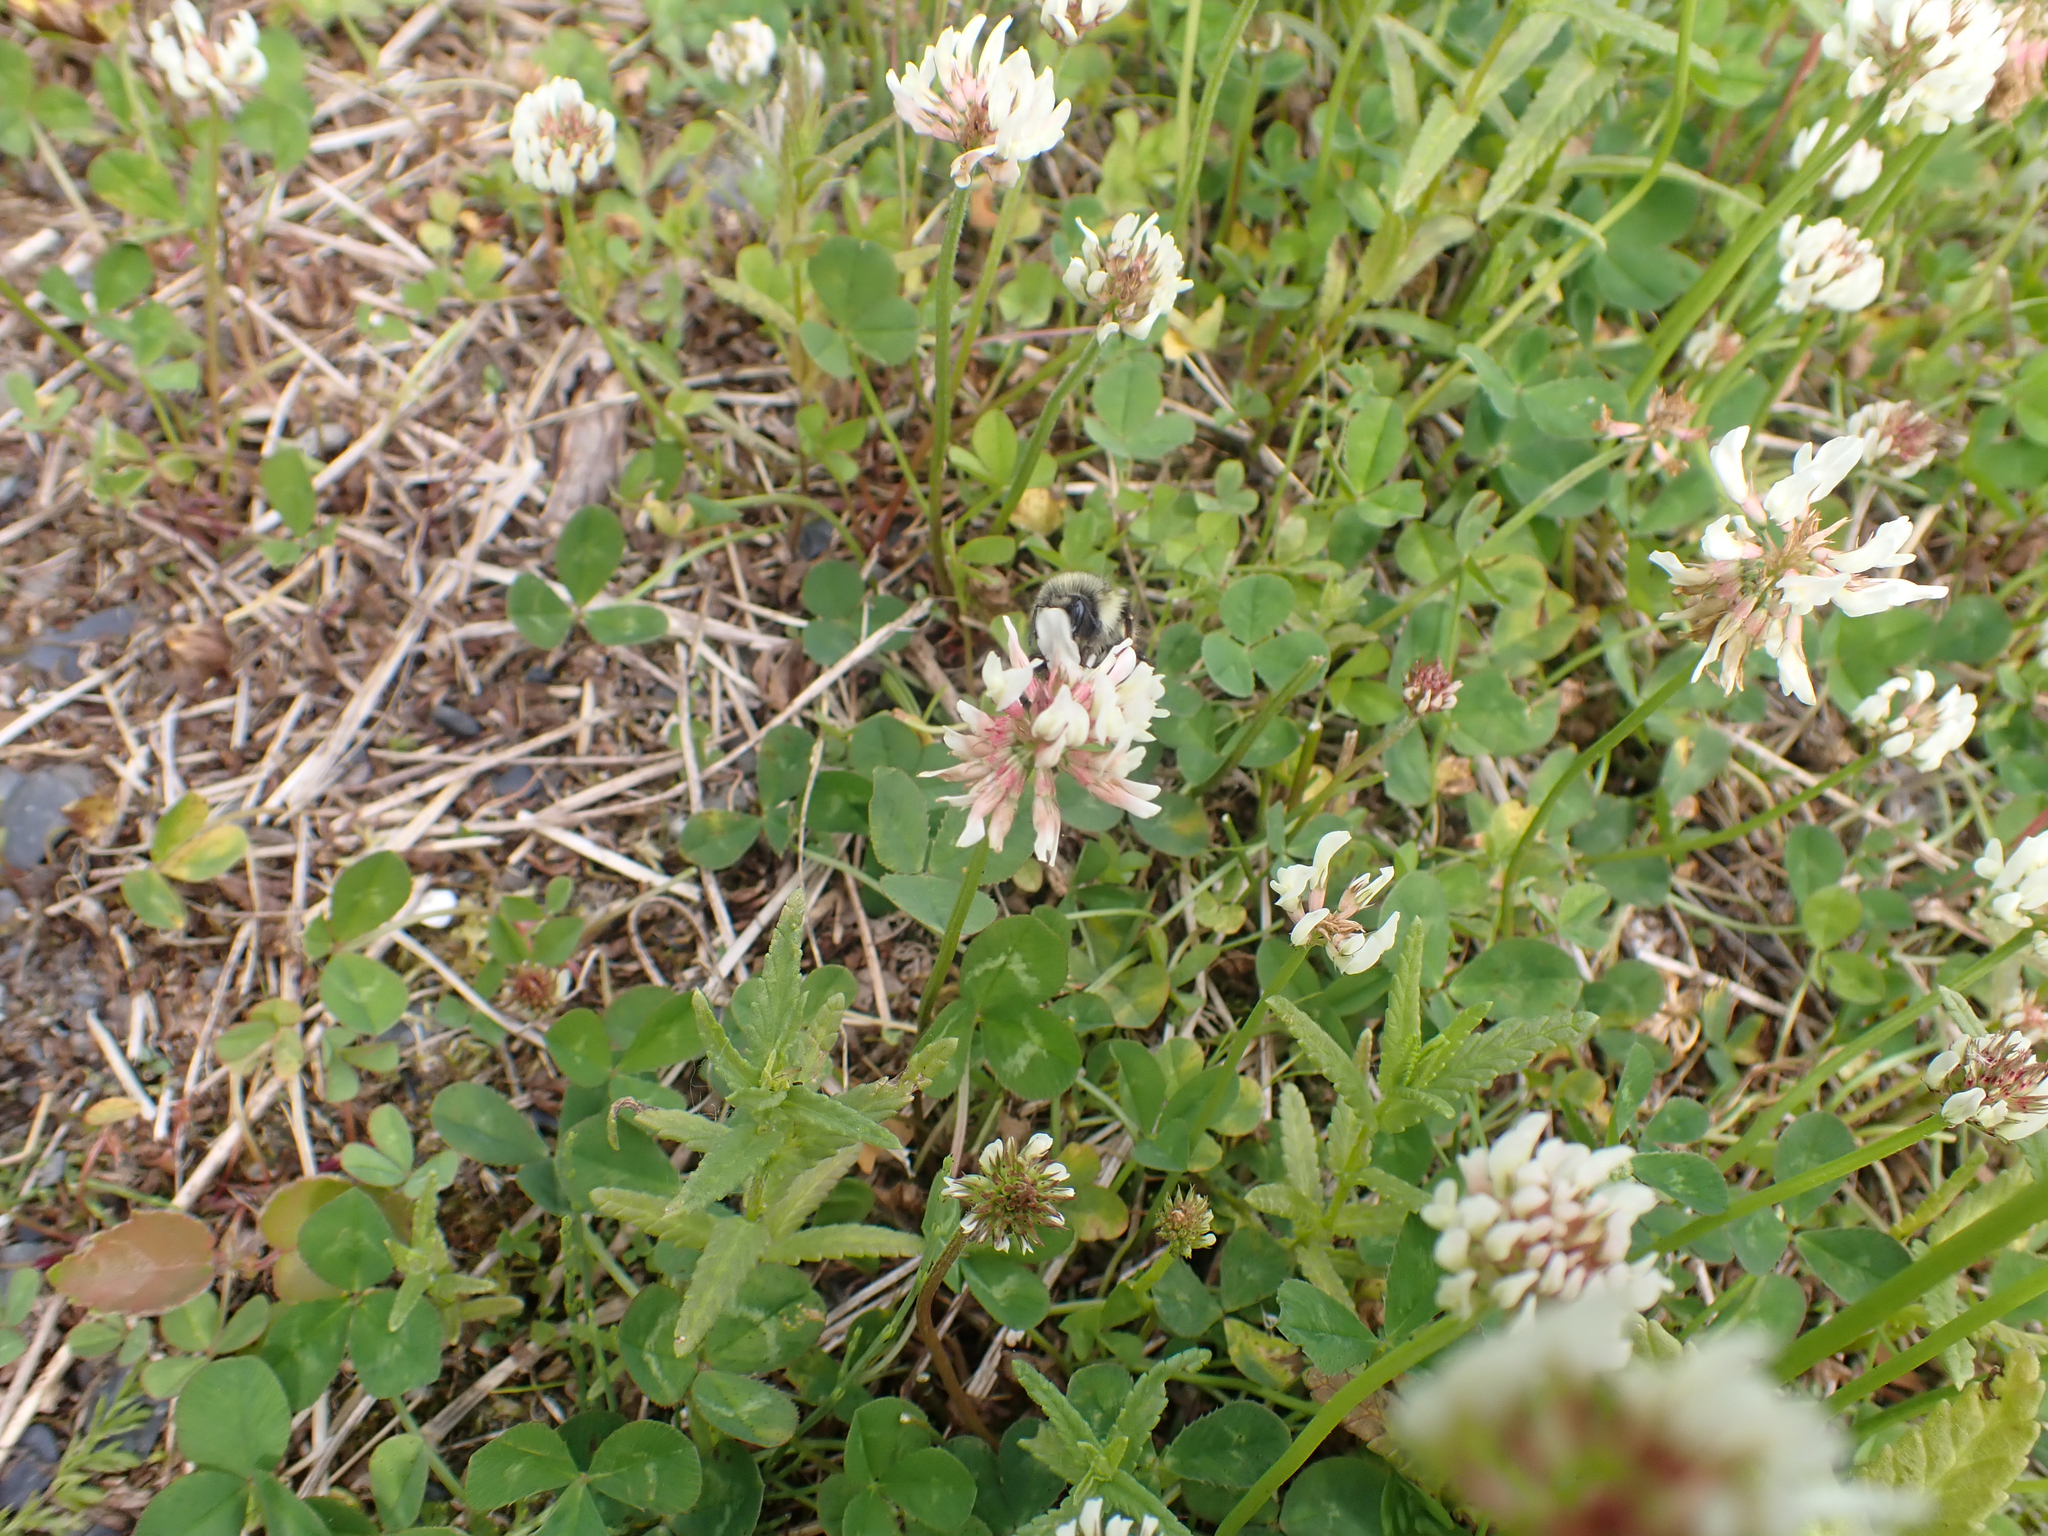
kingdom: Plantae
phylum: Tracheophyta
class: Magnoliopsida
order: Fabales
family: Fabaceae
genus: Trifolium
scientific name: Trifolium repens
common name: White clover
